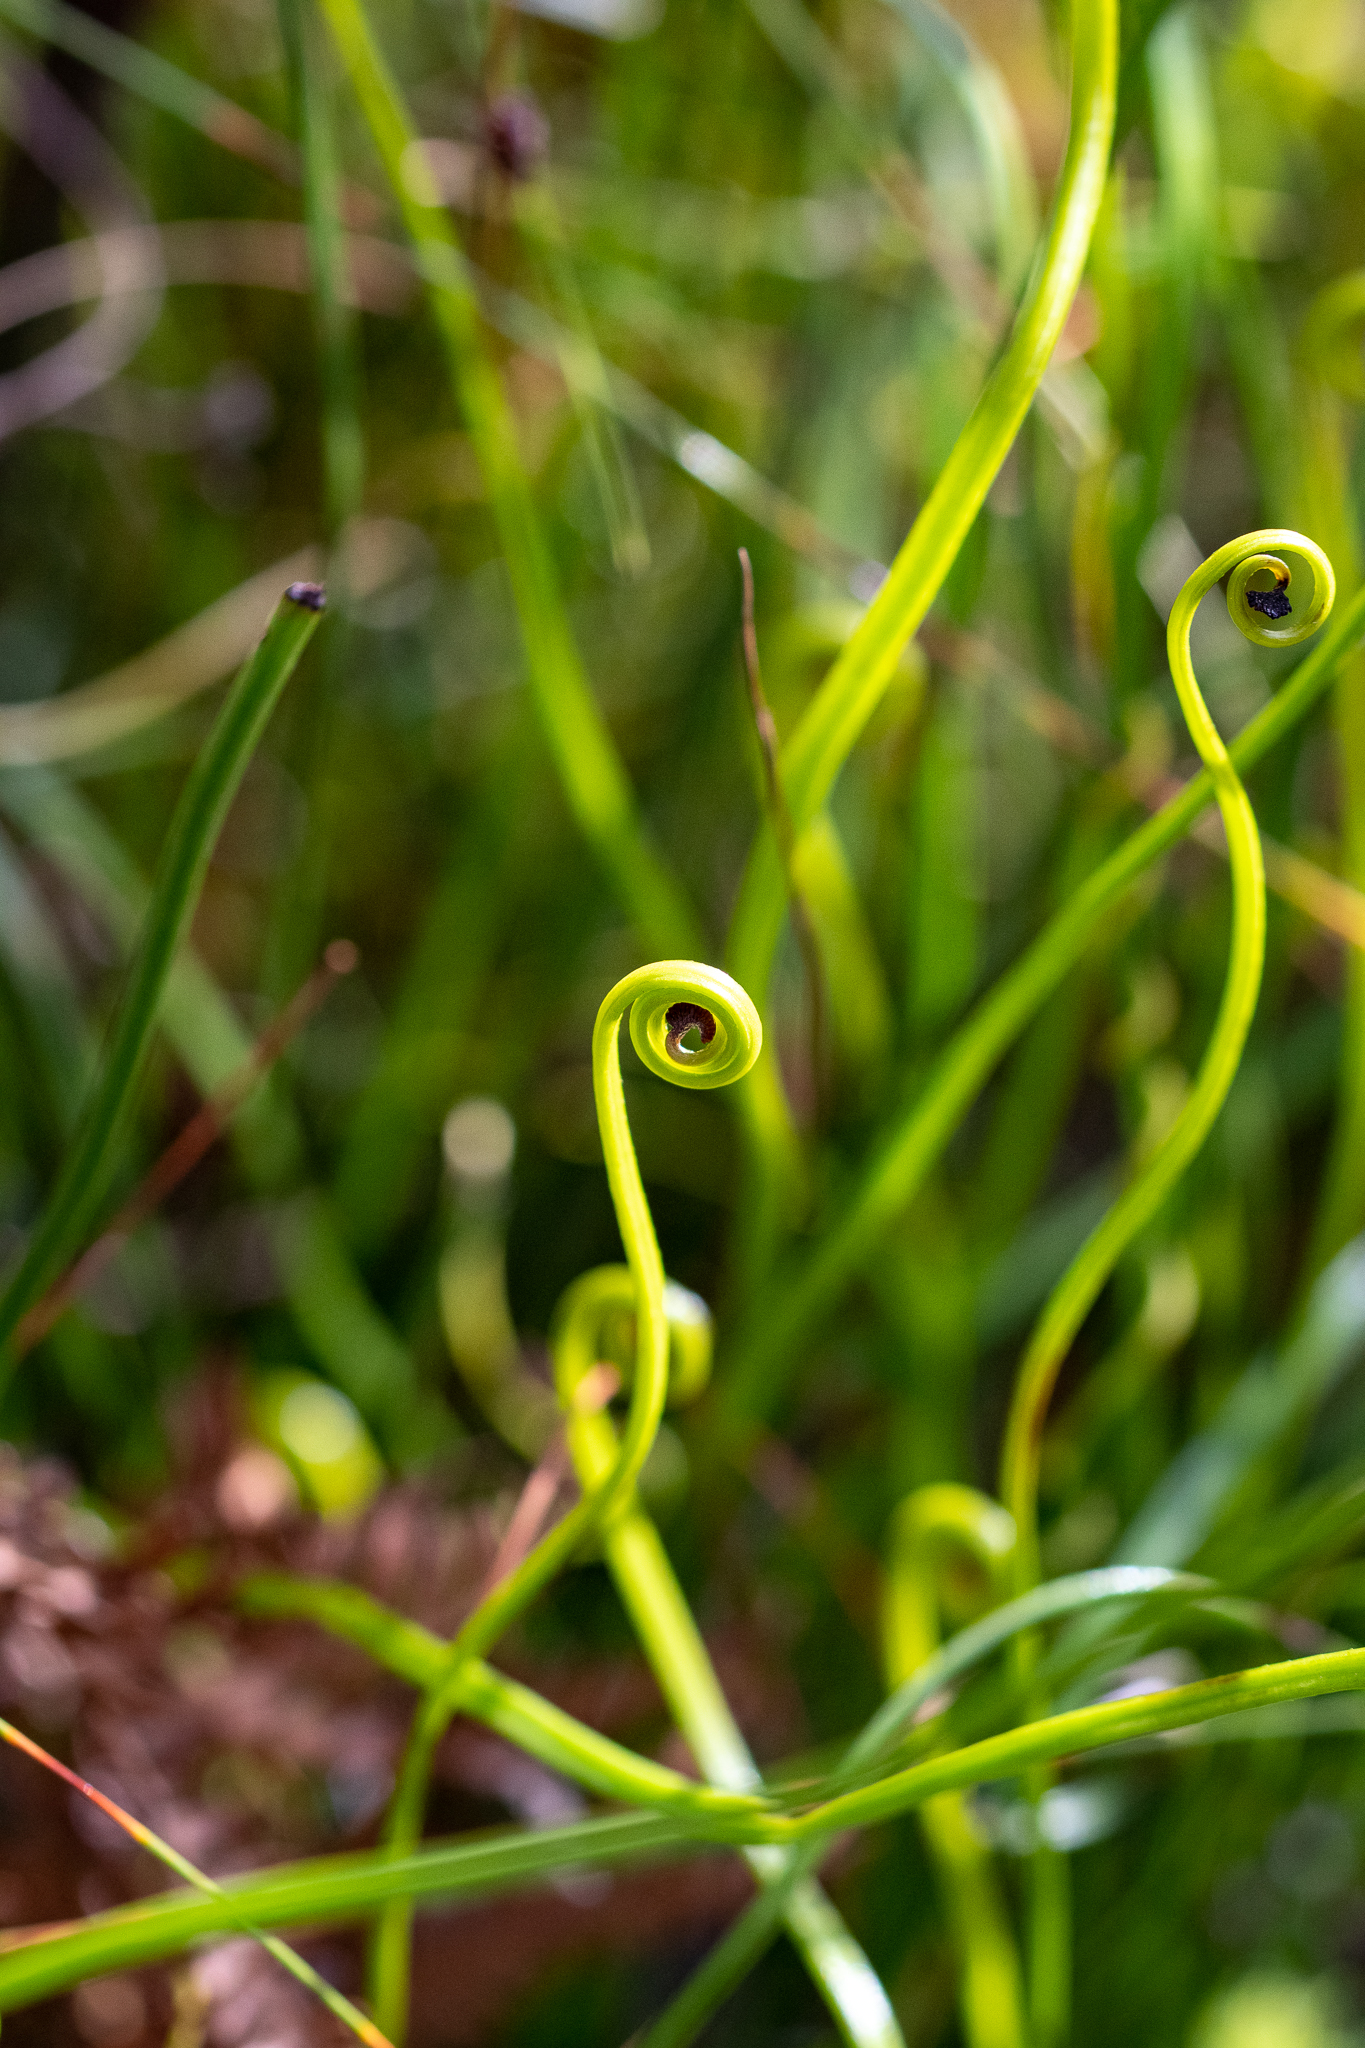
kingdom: Plantae
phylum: Tracheophyta
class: Polypodiopsida
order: Schizaeales
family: Schizaeaceae
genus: Schizaea
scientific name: Schizaea pectinata
